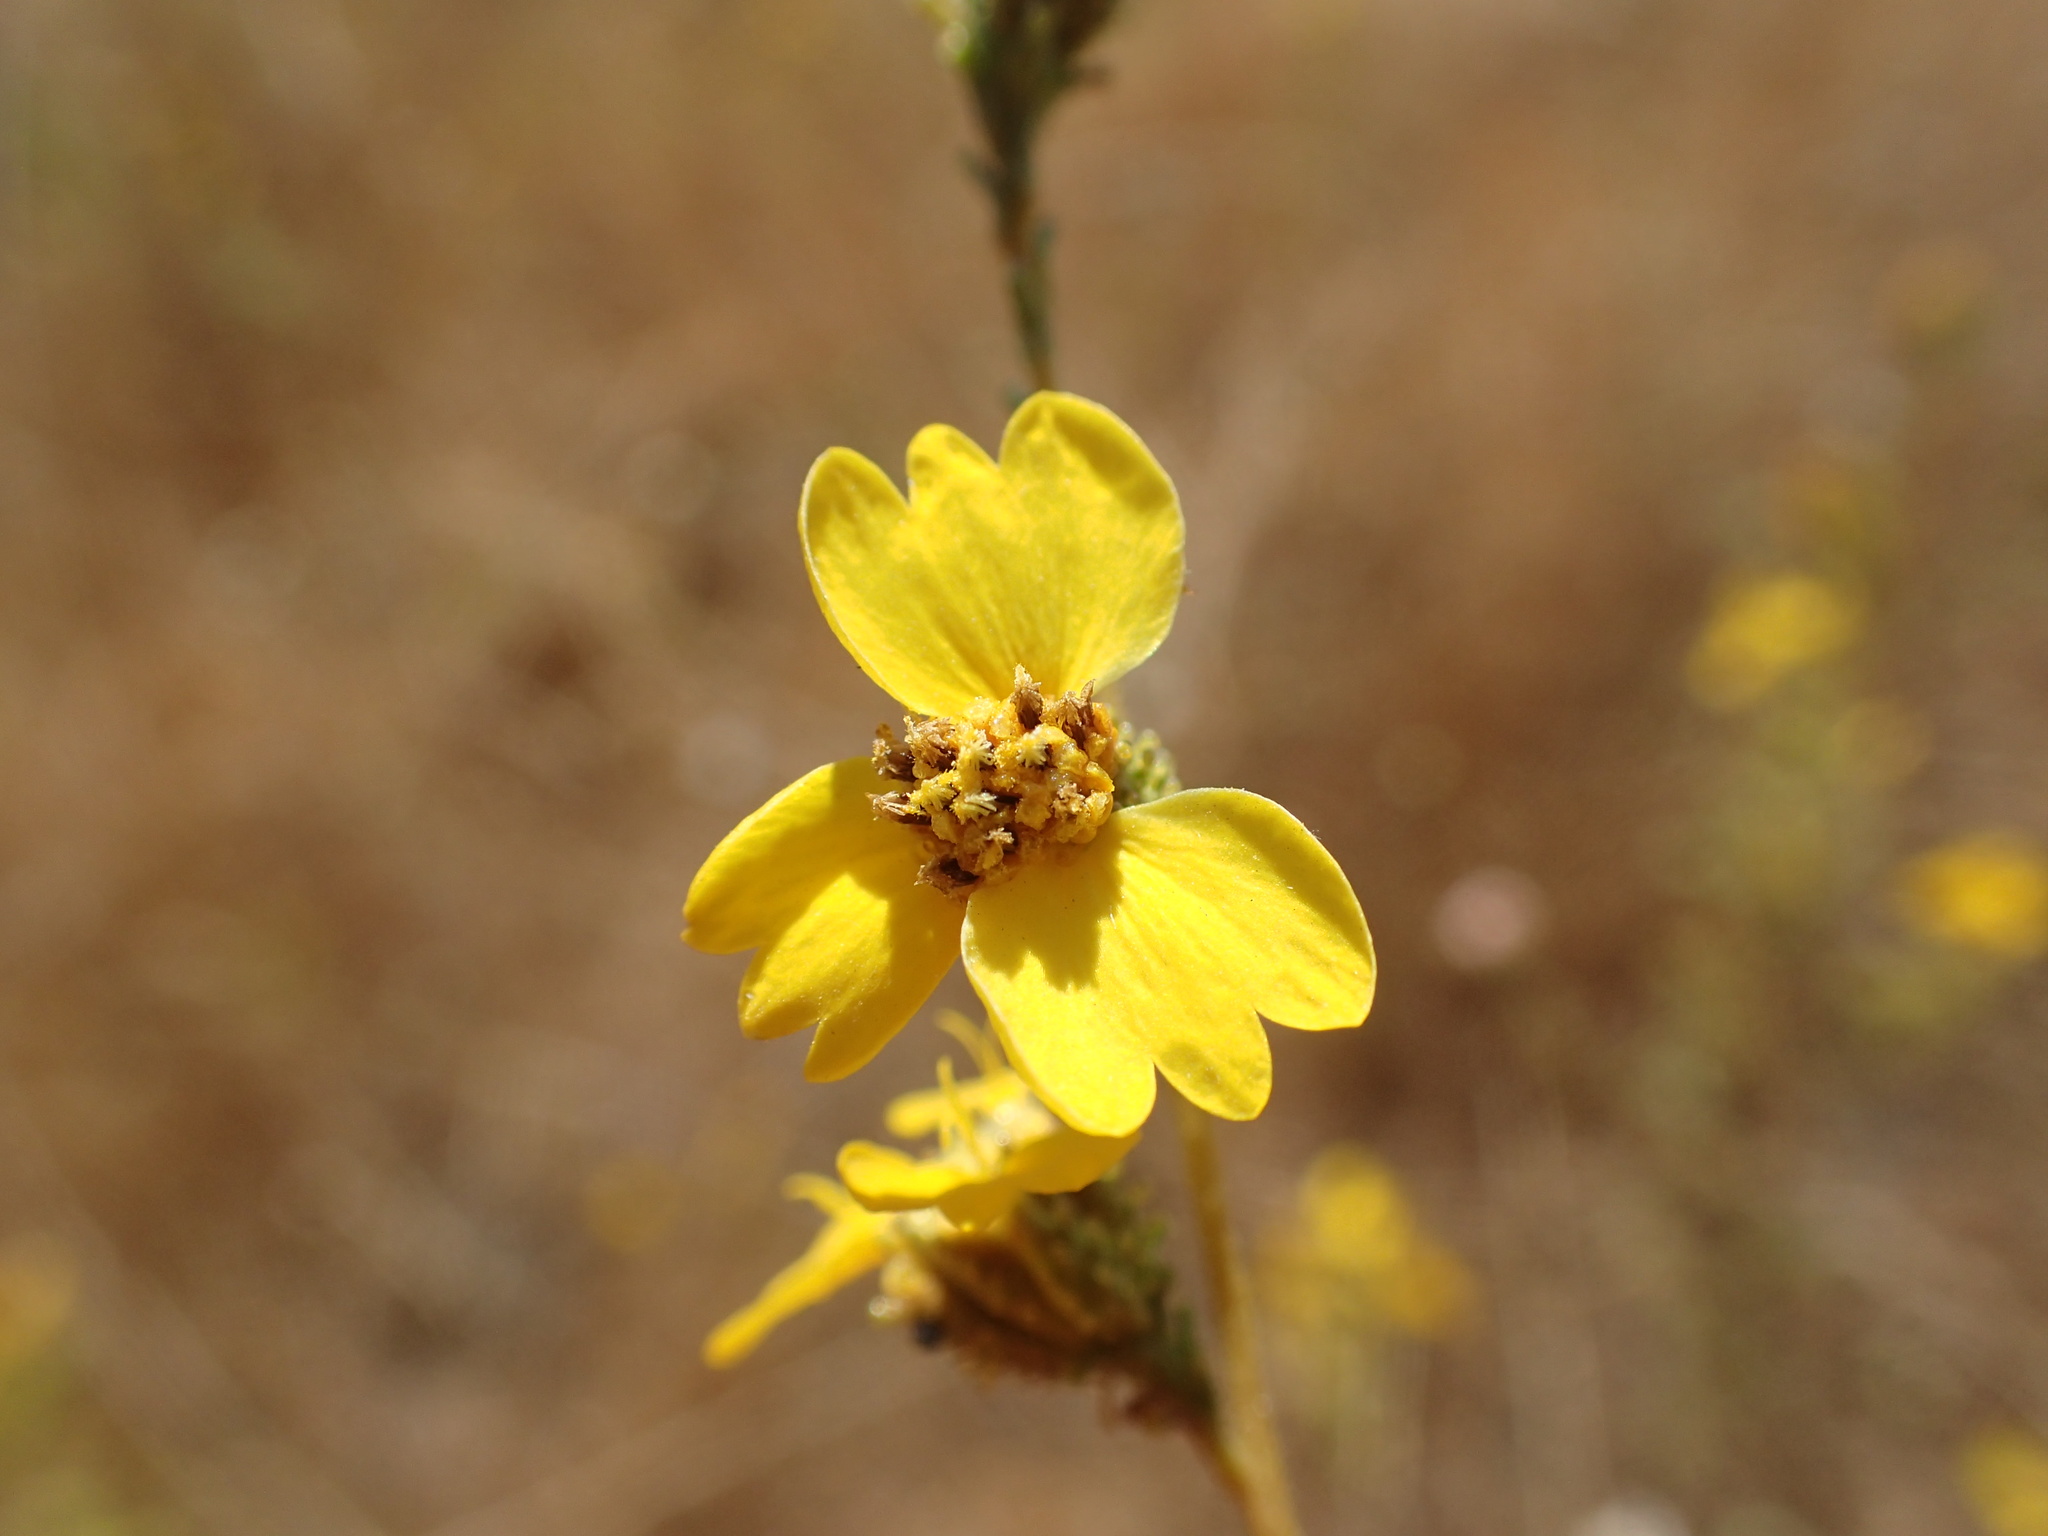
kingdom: Plantae
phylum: Tracheophyta
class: Magnoliopsida
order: Asterales
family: Asteraceae
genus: Holocarpha
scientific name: Holocarpha virgata
